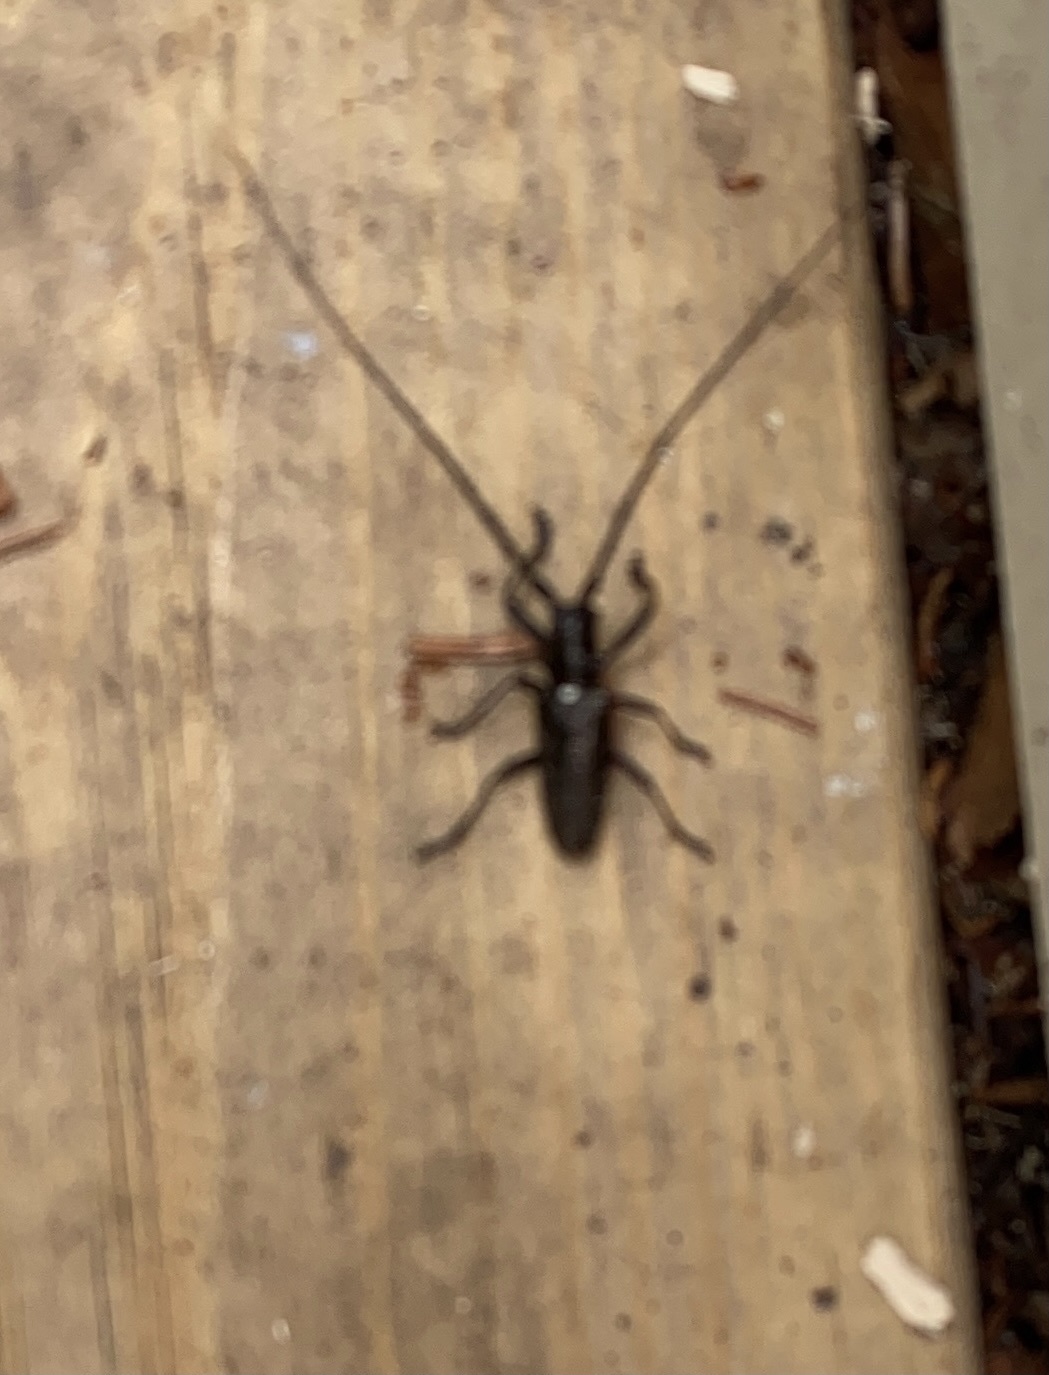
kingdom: Animalia
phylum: Arthropoda
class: Insecta
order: Coleoptera
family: Cerambycidae
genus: Monochamus
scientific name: Monochamus scutellatus
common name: White-spotted sawyer beetle
